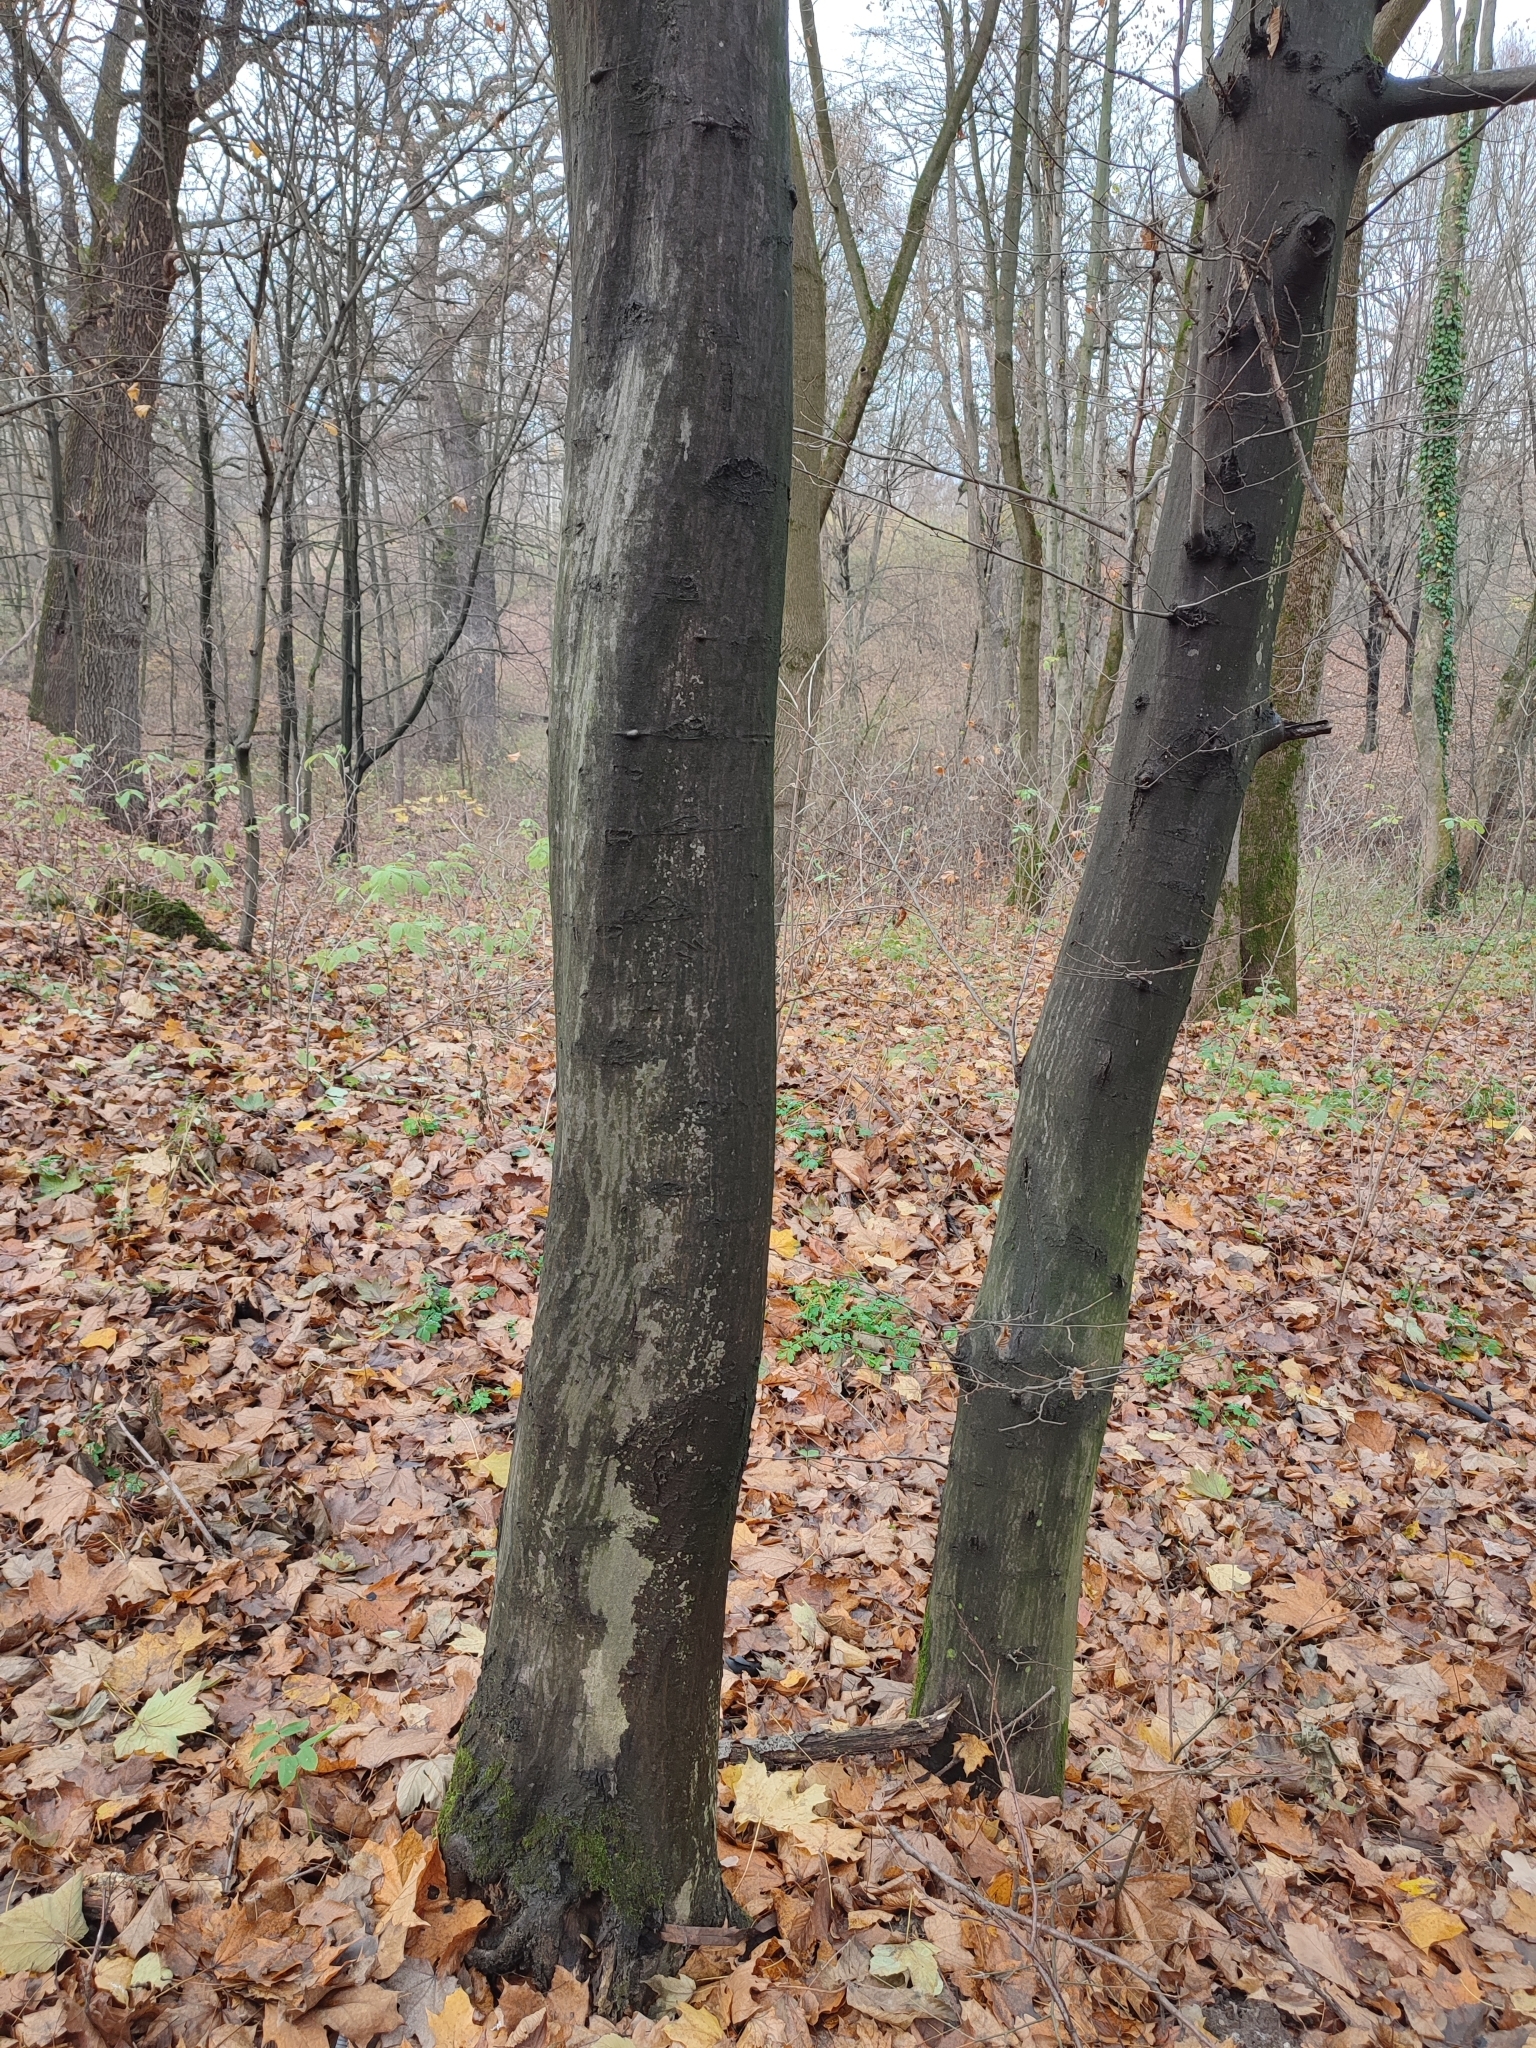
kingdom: Plantae
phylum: Tracheophyta
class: Magnoliopsida
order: Fagales
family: Betulaceae
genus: Carpinus
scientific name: Carpinus betulus
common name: Hornbeam
